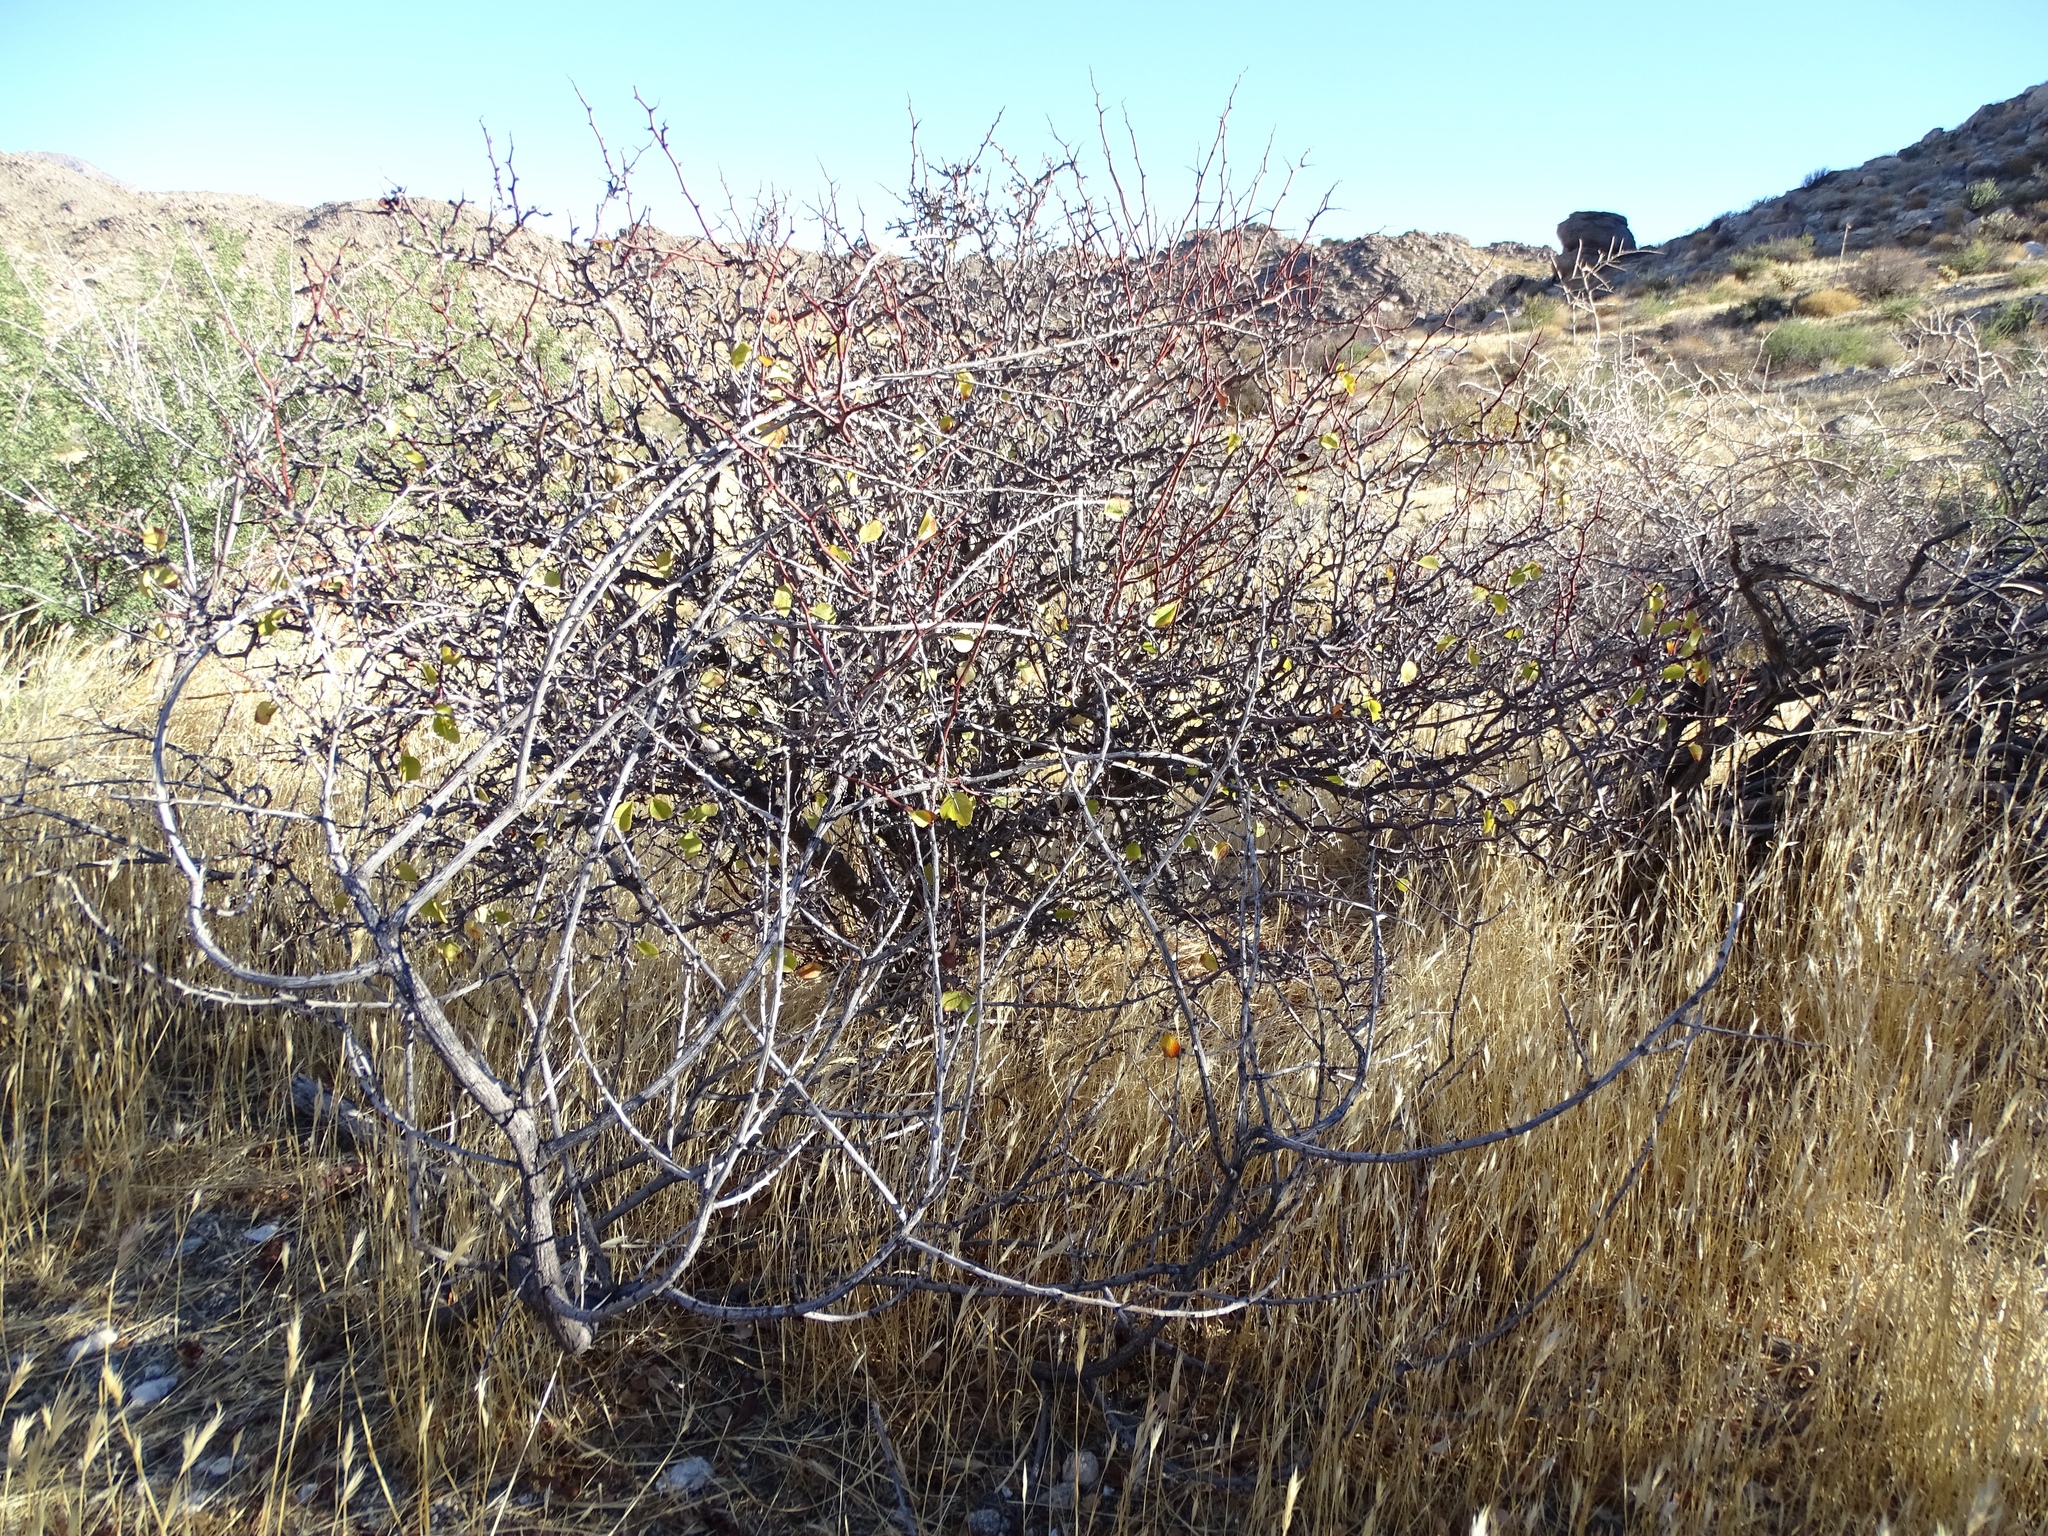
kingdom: Plantae
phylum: Tracheophyta
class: Magnoliopsida
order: Rosales
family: Rosaceae
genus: Prunus
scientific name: Prunus fremontii
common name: Desert apricot
